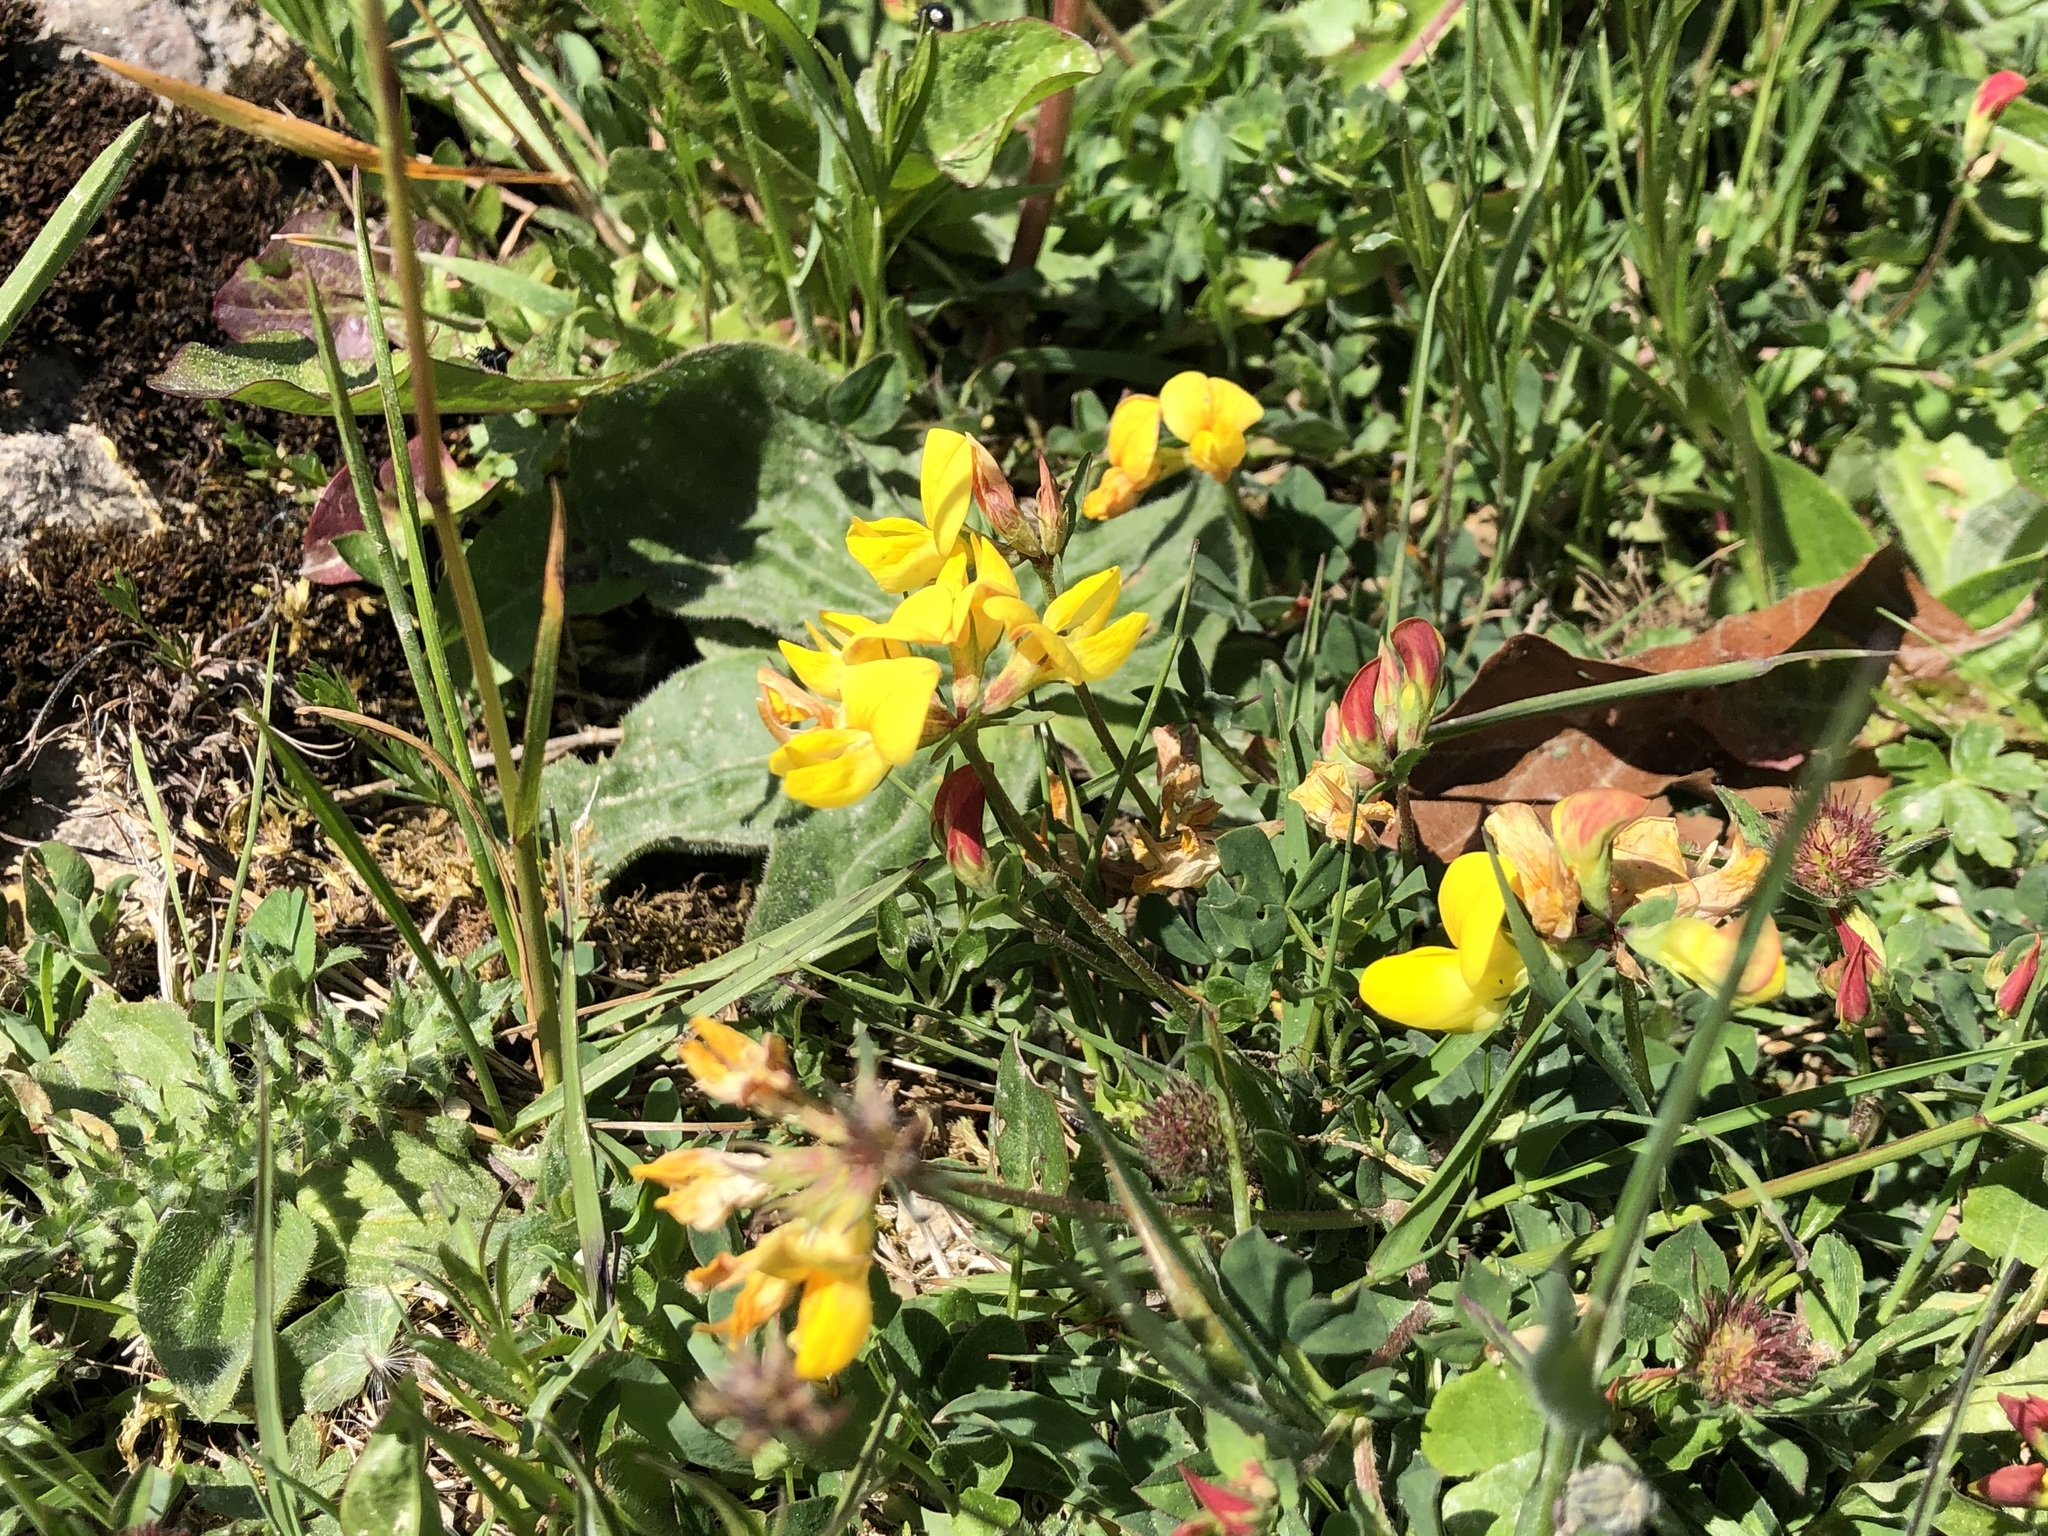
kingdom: Plantae
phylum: Tracheophyta
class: Magnoliopsida
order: Fabales
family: Fabaceae
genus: Lotus
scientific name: Lotus corniculatus
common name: Common bird's-foot-trefoil
